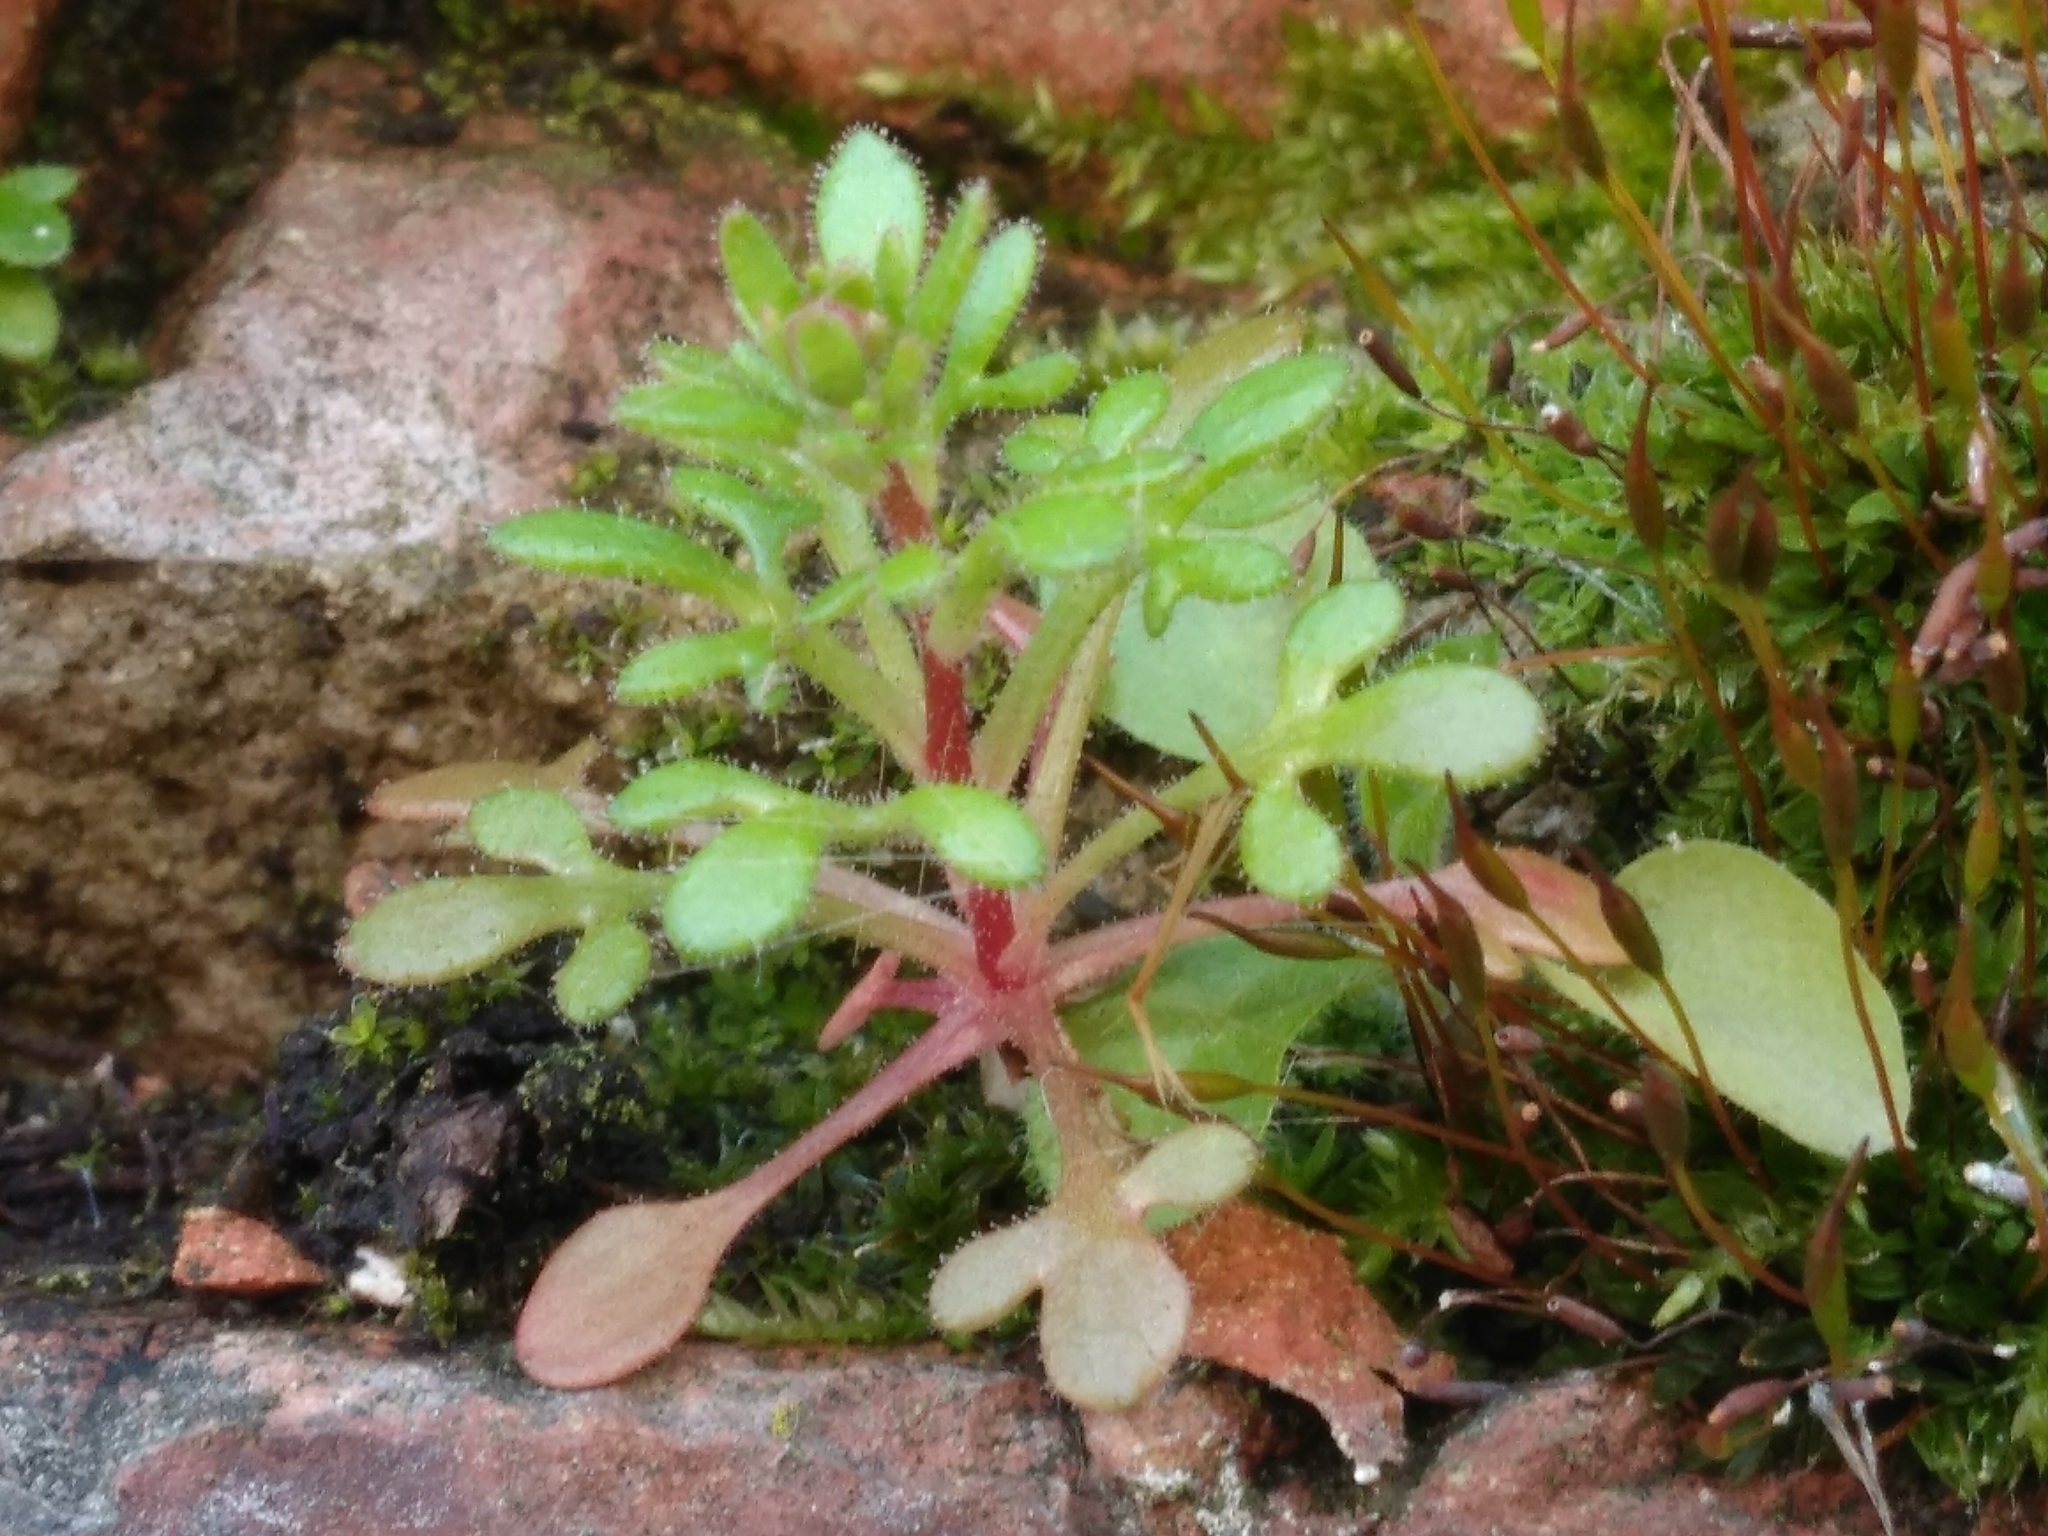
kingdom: Plantae
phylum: Tracheophyta
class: Magnoliopsida
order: Saxifragales
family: Saxifragaceae
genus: Saxifraga
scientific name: Saxifraga tridactylites
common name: Rue-leaved saxifrage
